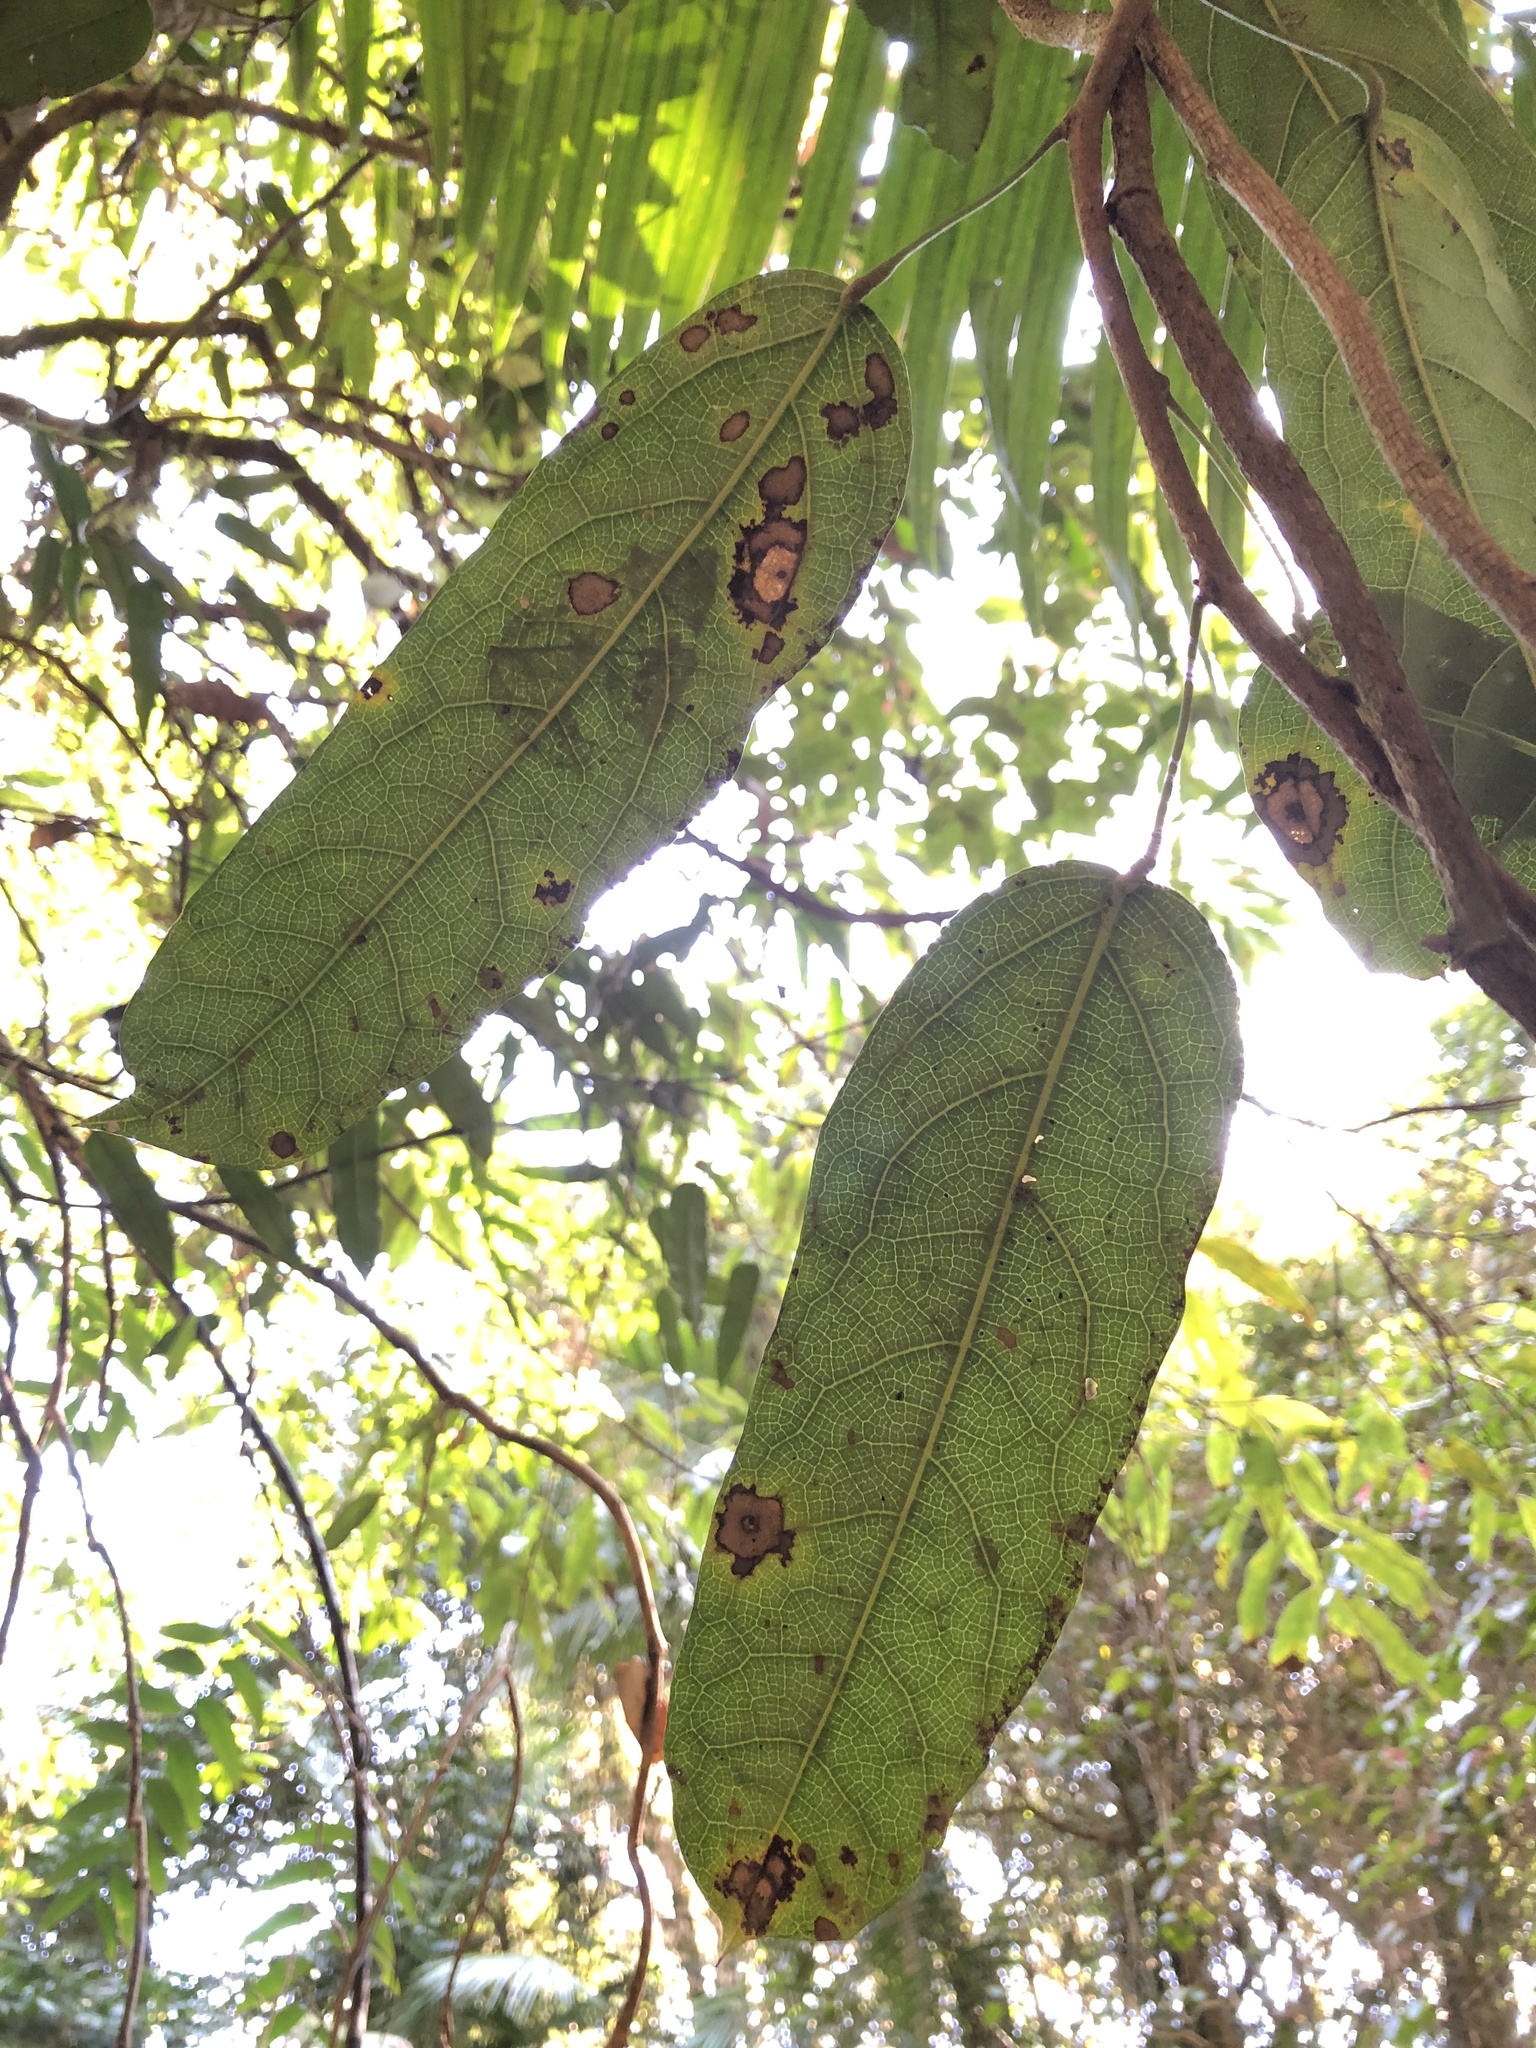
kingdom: Plantae
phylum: Tracheophyta
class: Magnoliopsida
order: Ranunculales
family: Menispermaceae
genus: Carronia
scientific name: Carronia multisepalea
